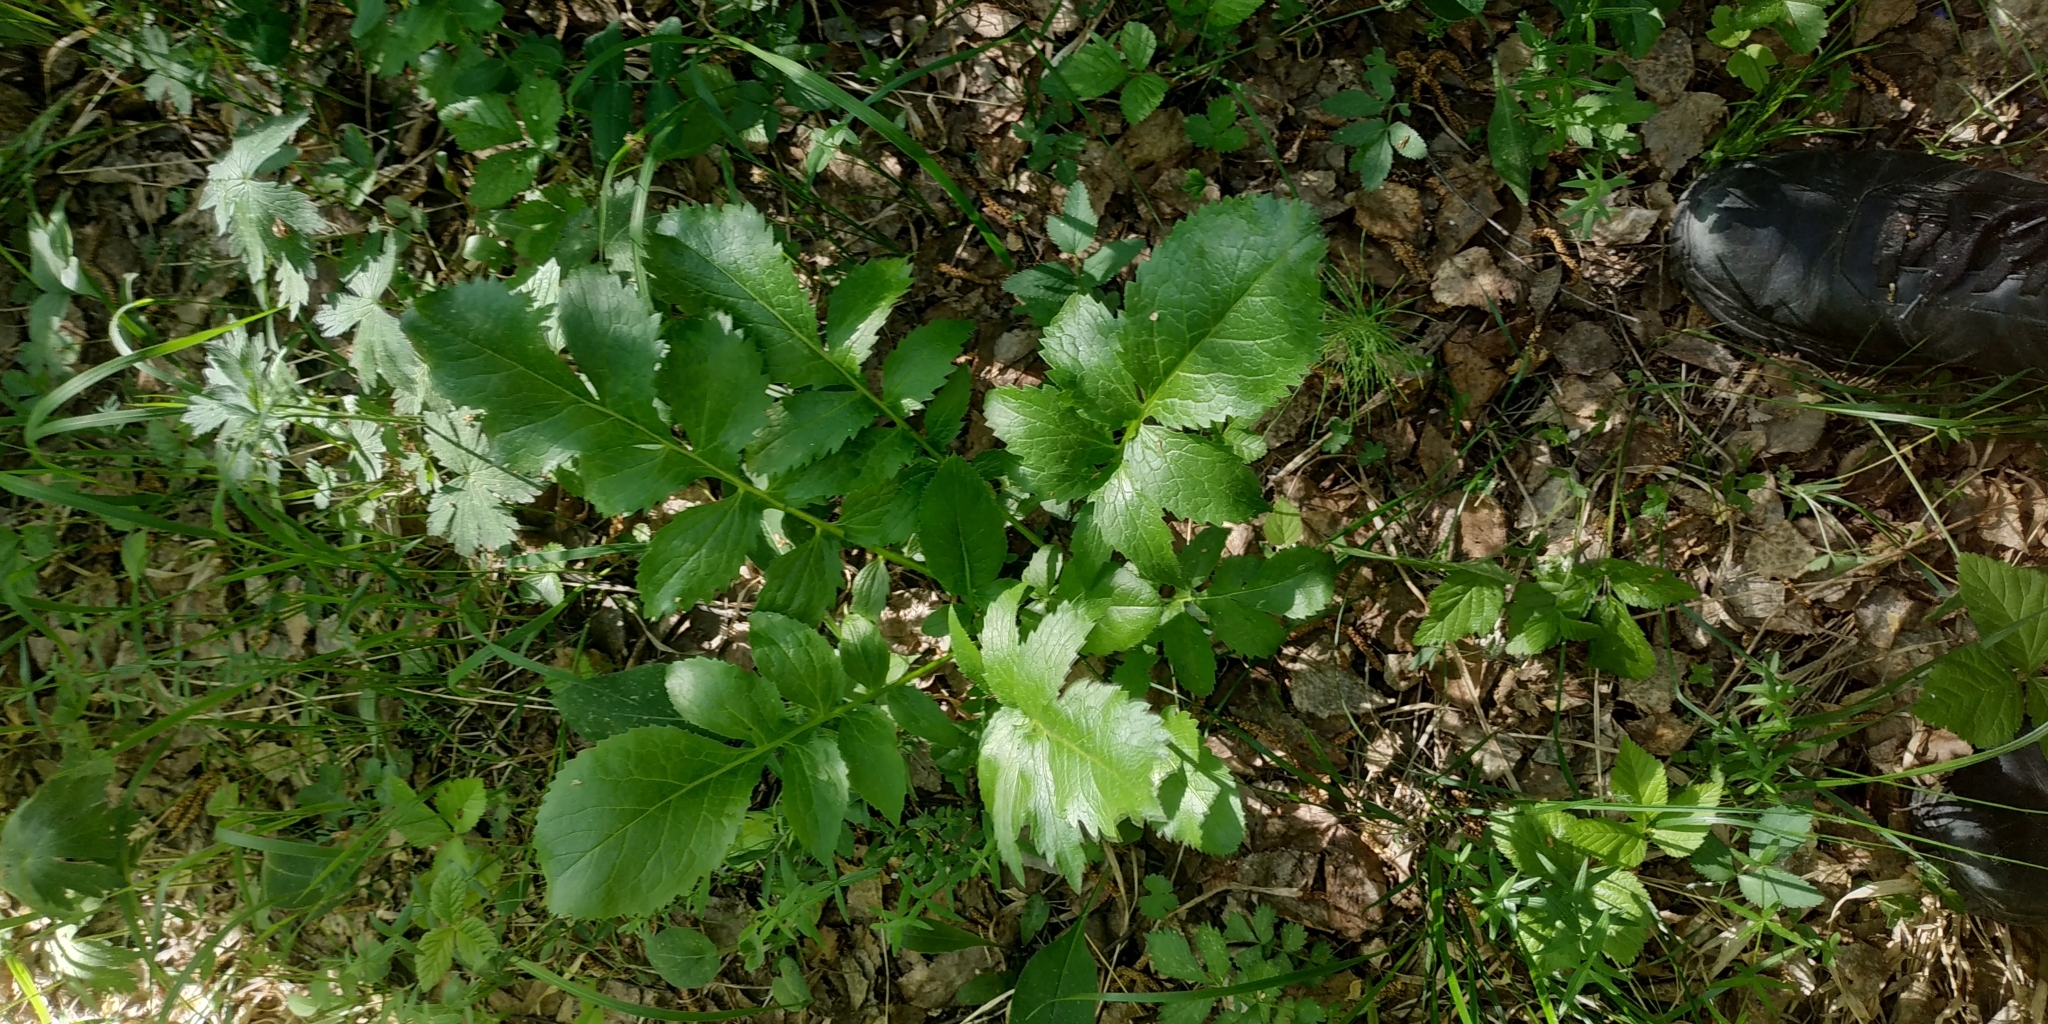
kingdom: Plantae
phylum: Tracheophyta
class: Magnoliopsida
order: Asterales
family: Asteraceae
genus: Serratula
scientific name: Serratula coronata
